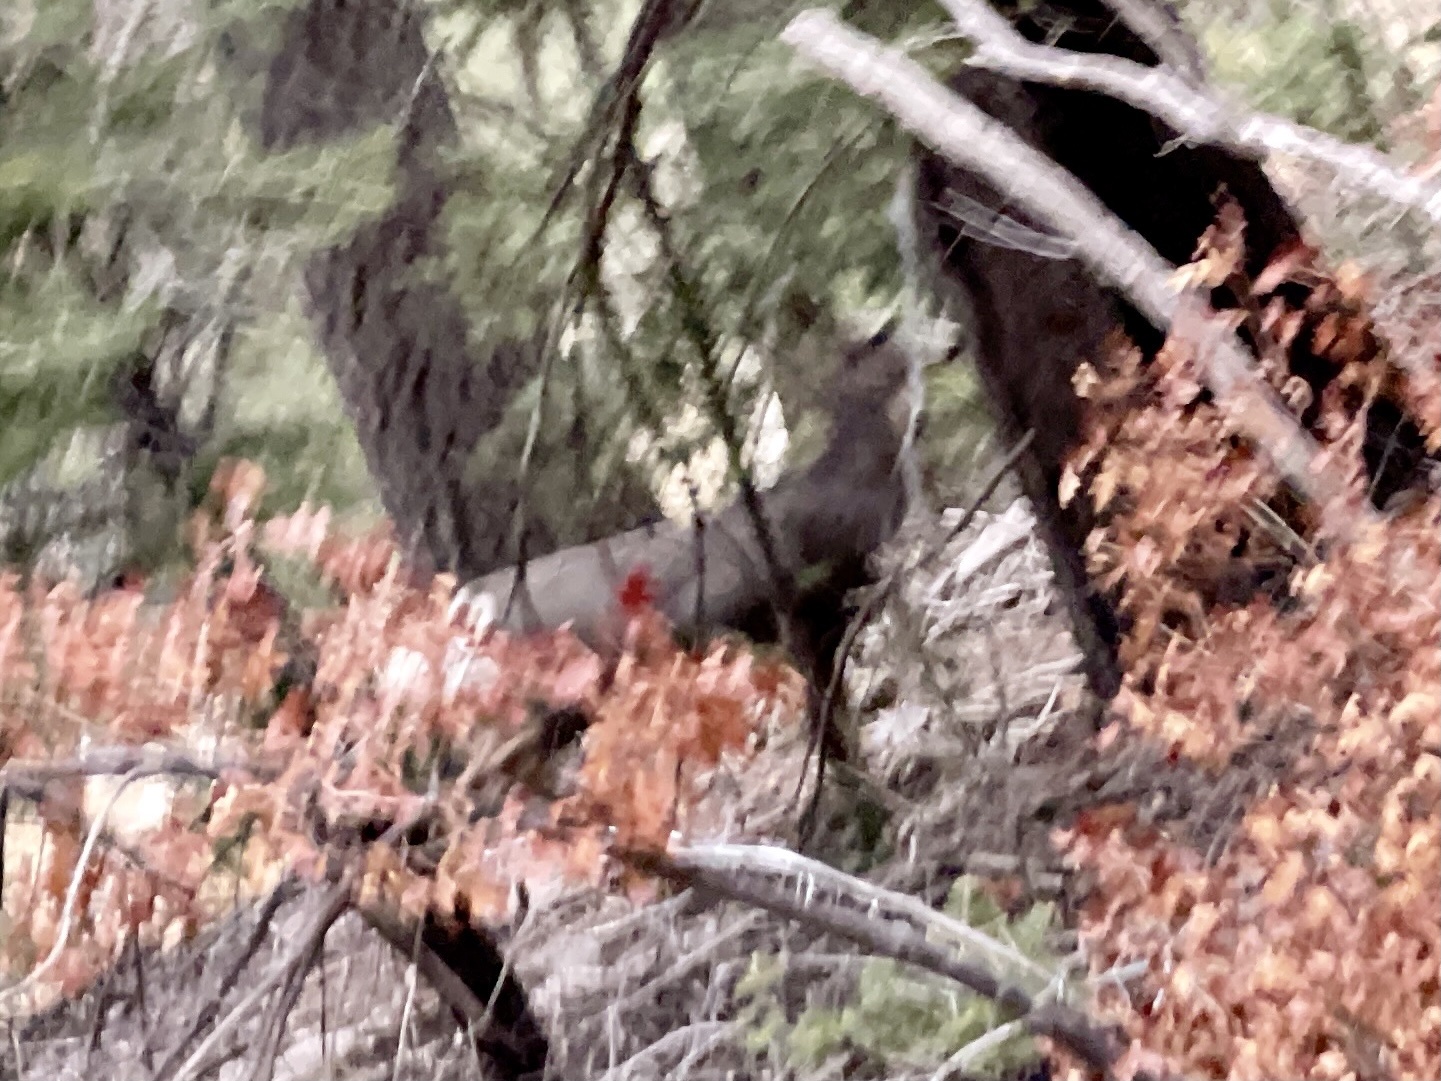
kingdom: Animalia
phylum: Chordata
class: Mammalia
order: Artiodactyla
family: Cervidae
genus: Odocoileus
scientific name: Odocoileus hemionus
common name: Mule deer
